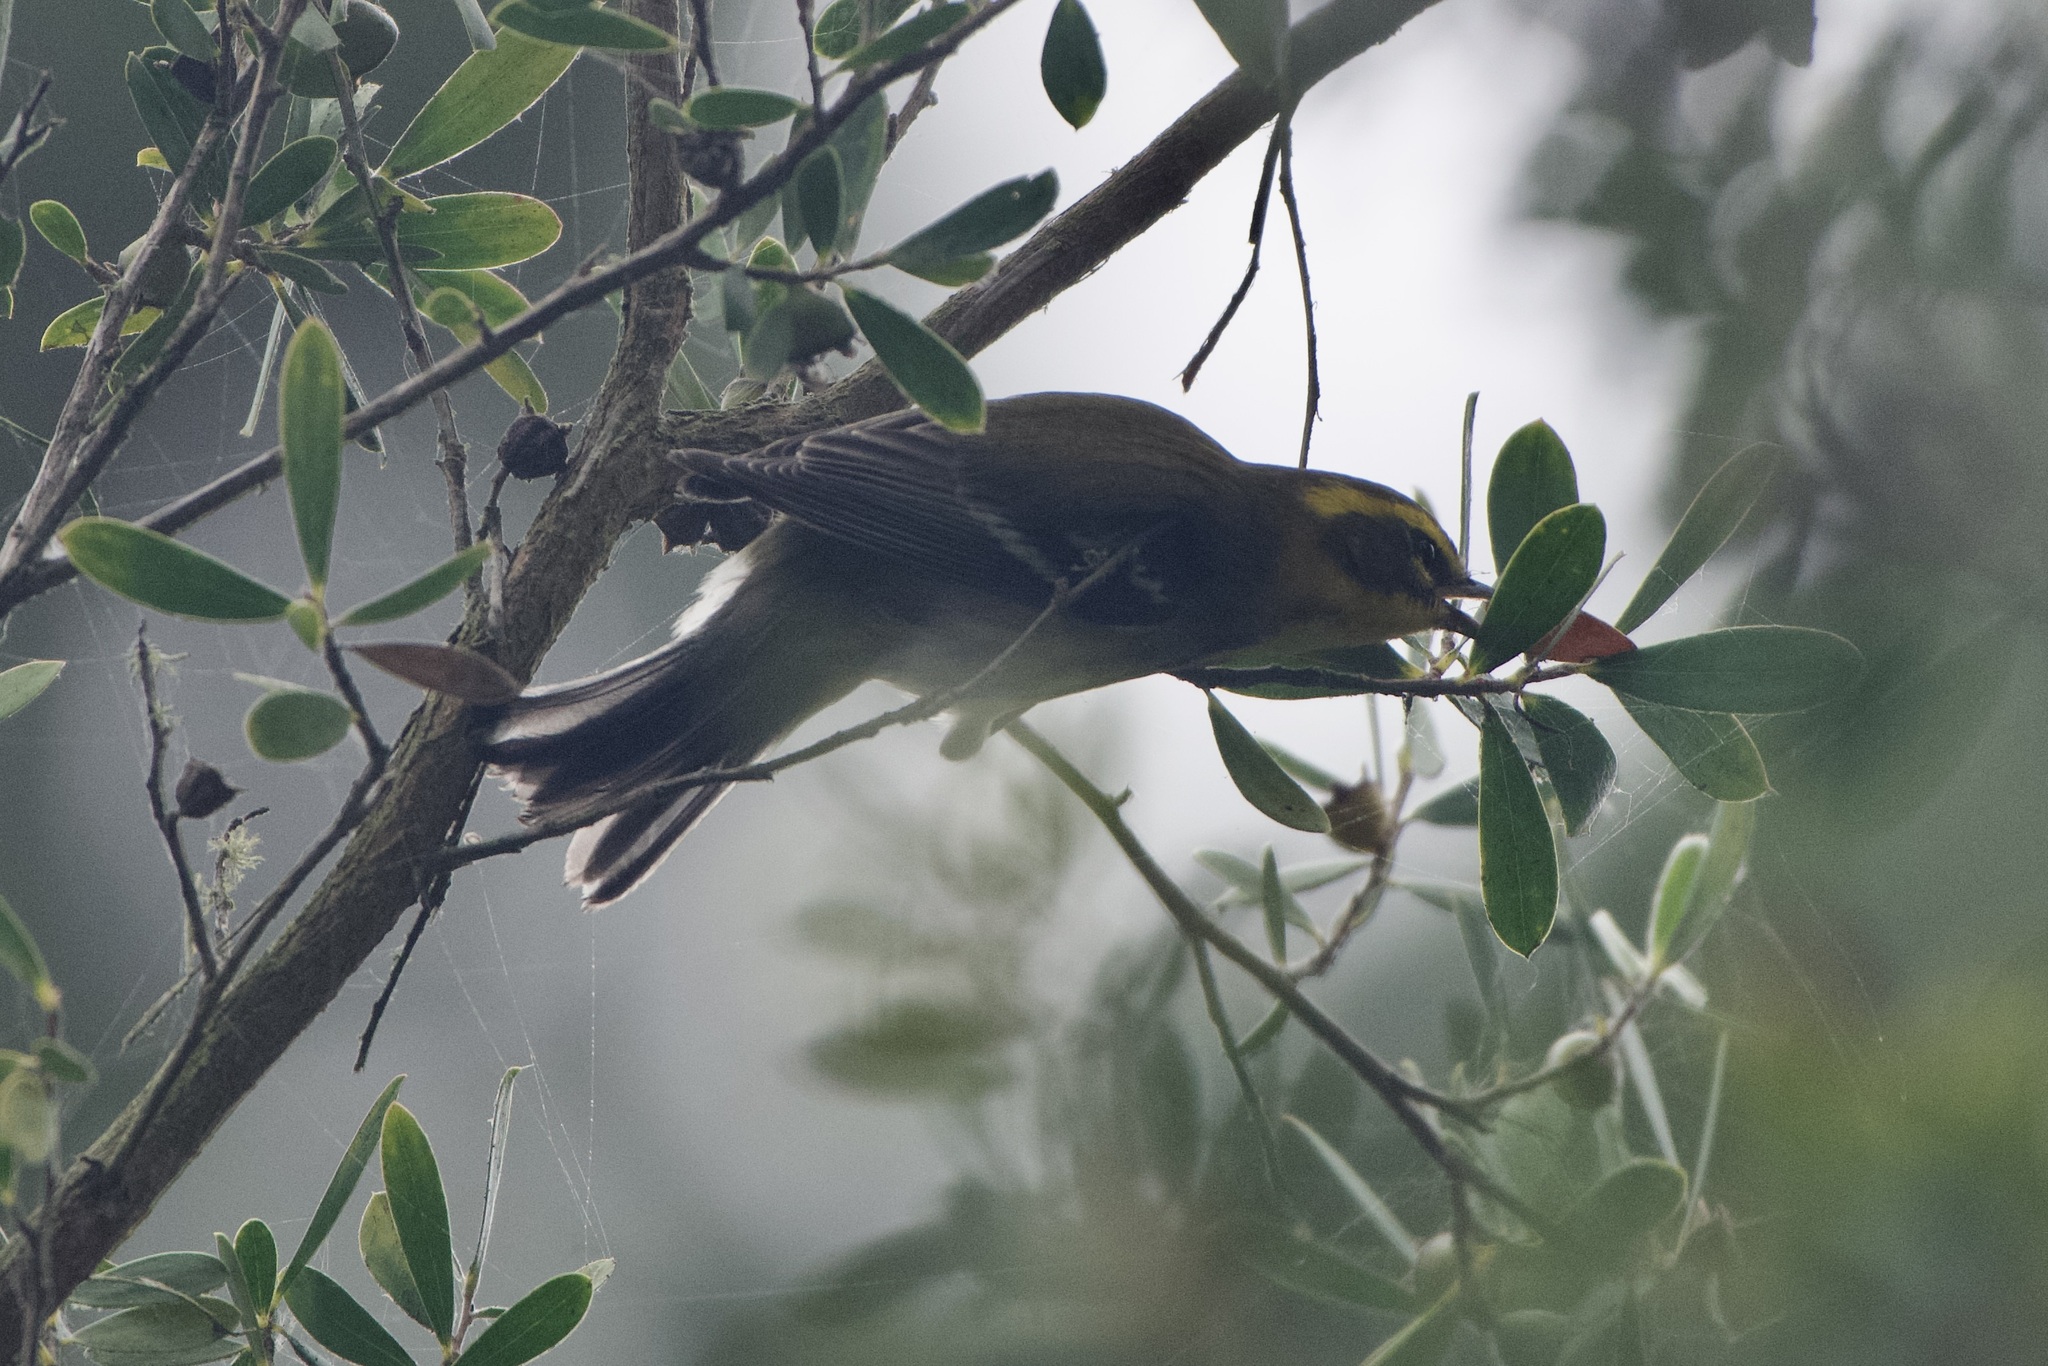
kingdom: Animalia
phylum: Chordata
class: Aves
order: Passeriformes
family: Parulidae
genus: Setophaga
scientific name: Setophaga townsendi
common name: Townsend's warbler
